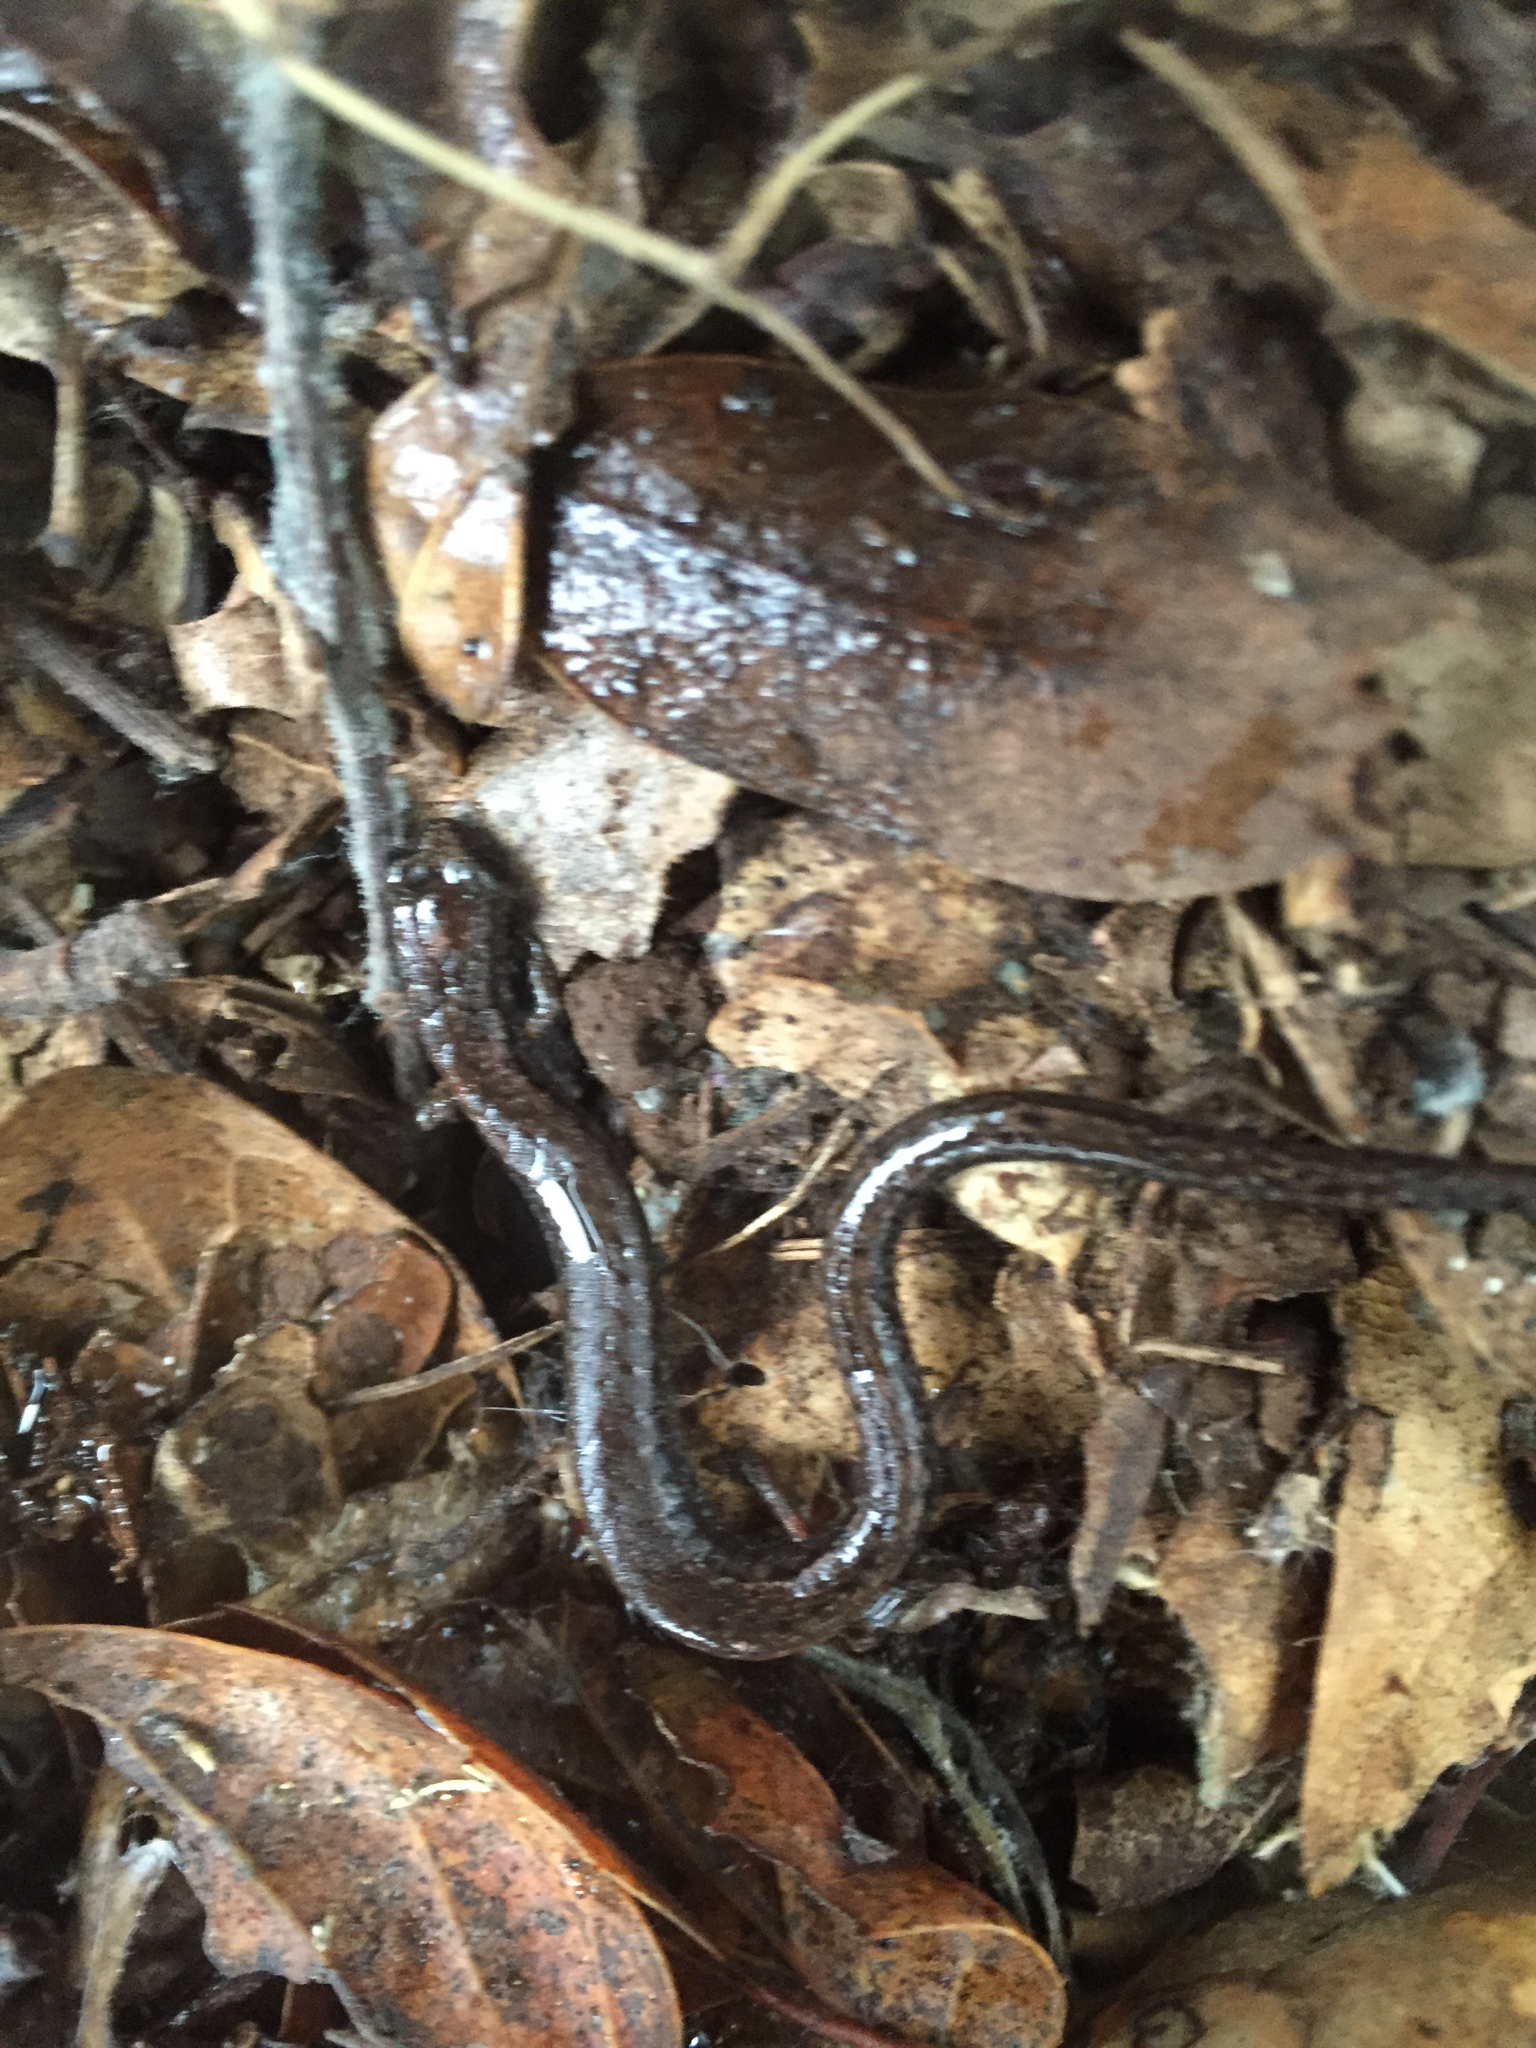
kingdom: Animalia
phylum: Chordata
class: Amphibia
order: Caudata
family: Plethodontidae
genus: Batrachoseps
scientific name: Batrachoseps attenuatus
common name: California slender salamander
